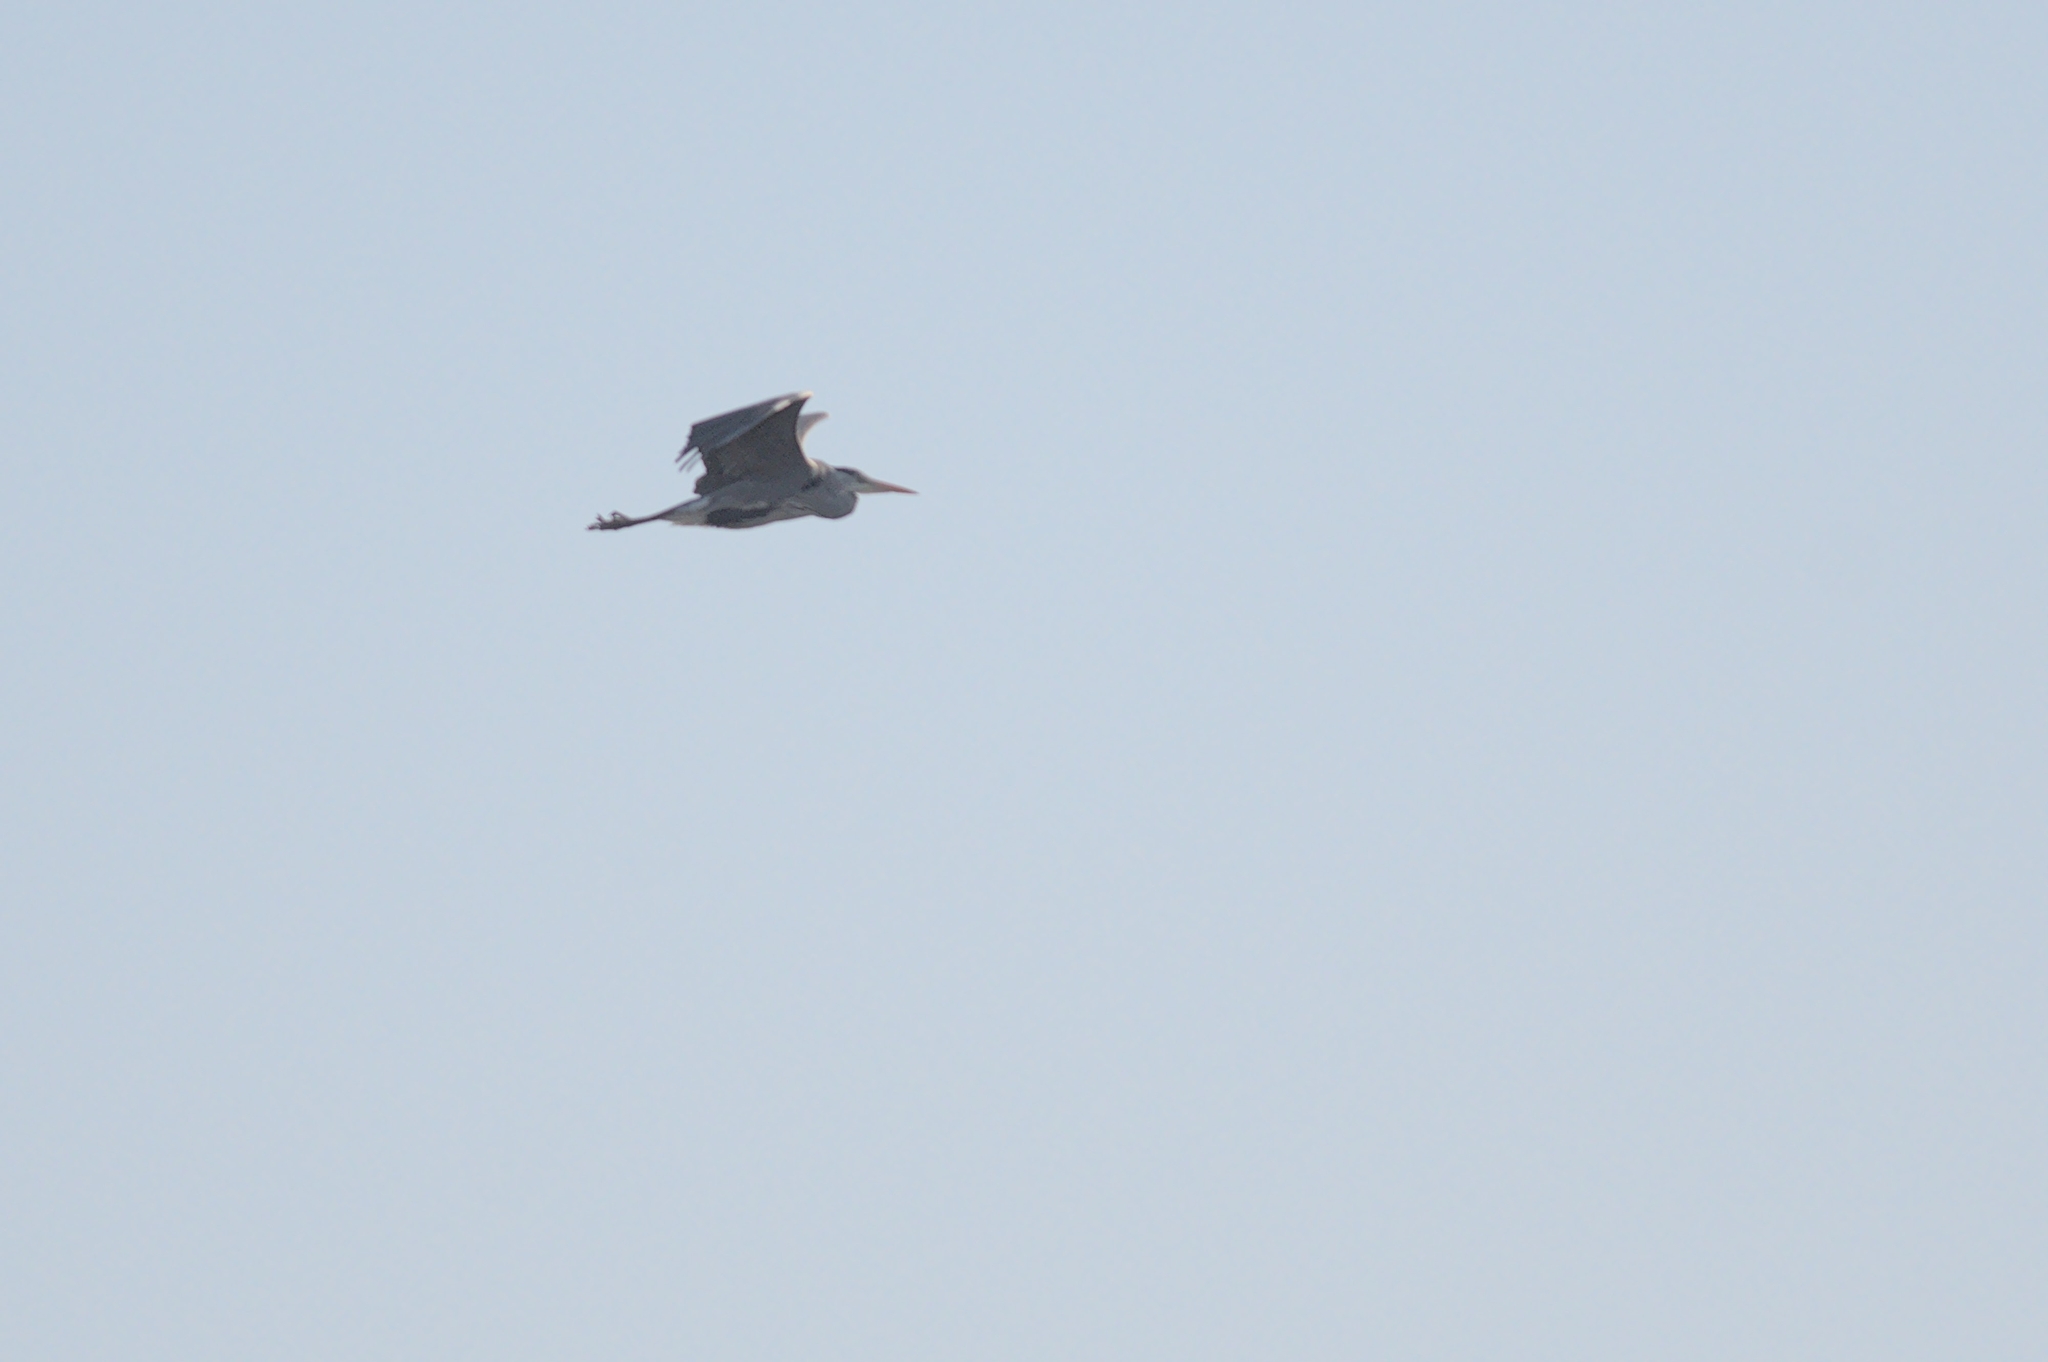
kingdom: Animalia
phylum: Chordata
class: Aves
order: Pelecaniformes
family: Ardeidae
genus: Ardea
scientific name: Ardea cinerea
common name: Grey heron
